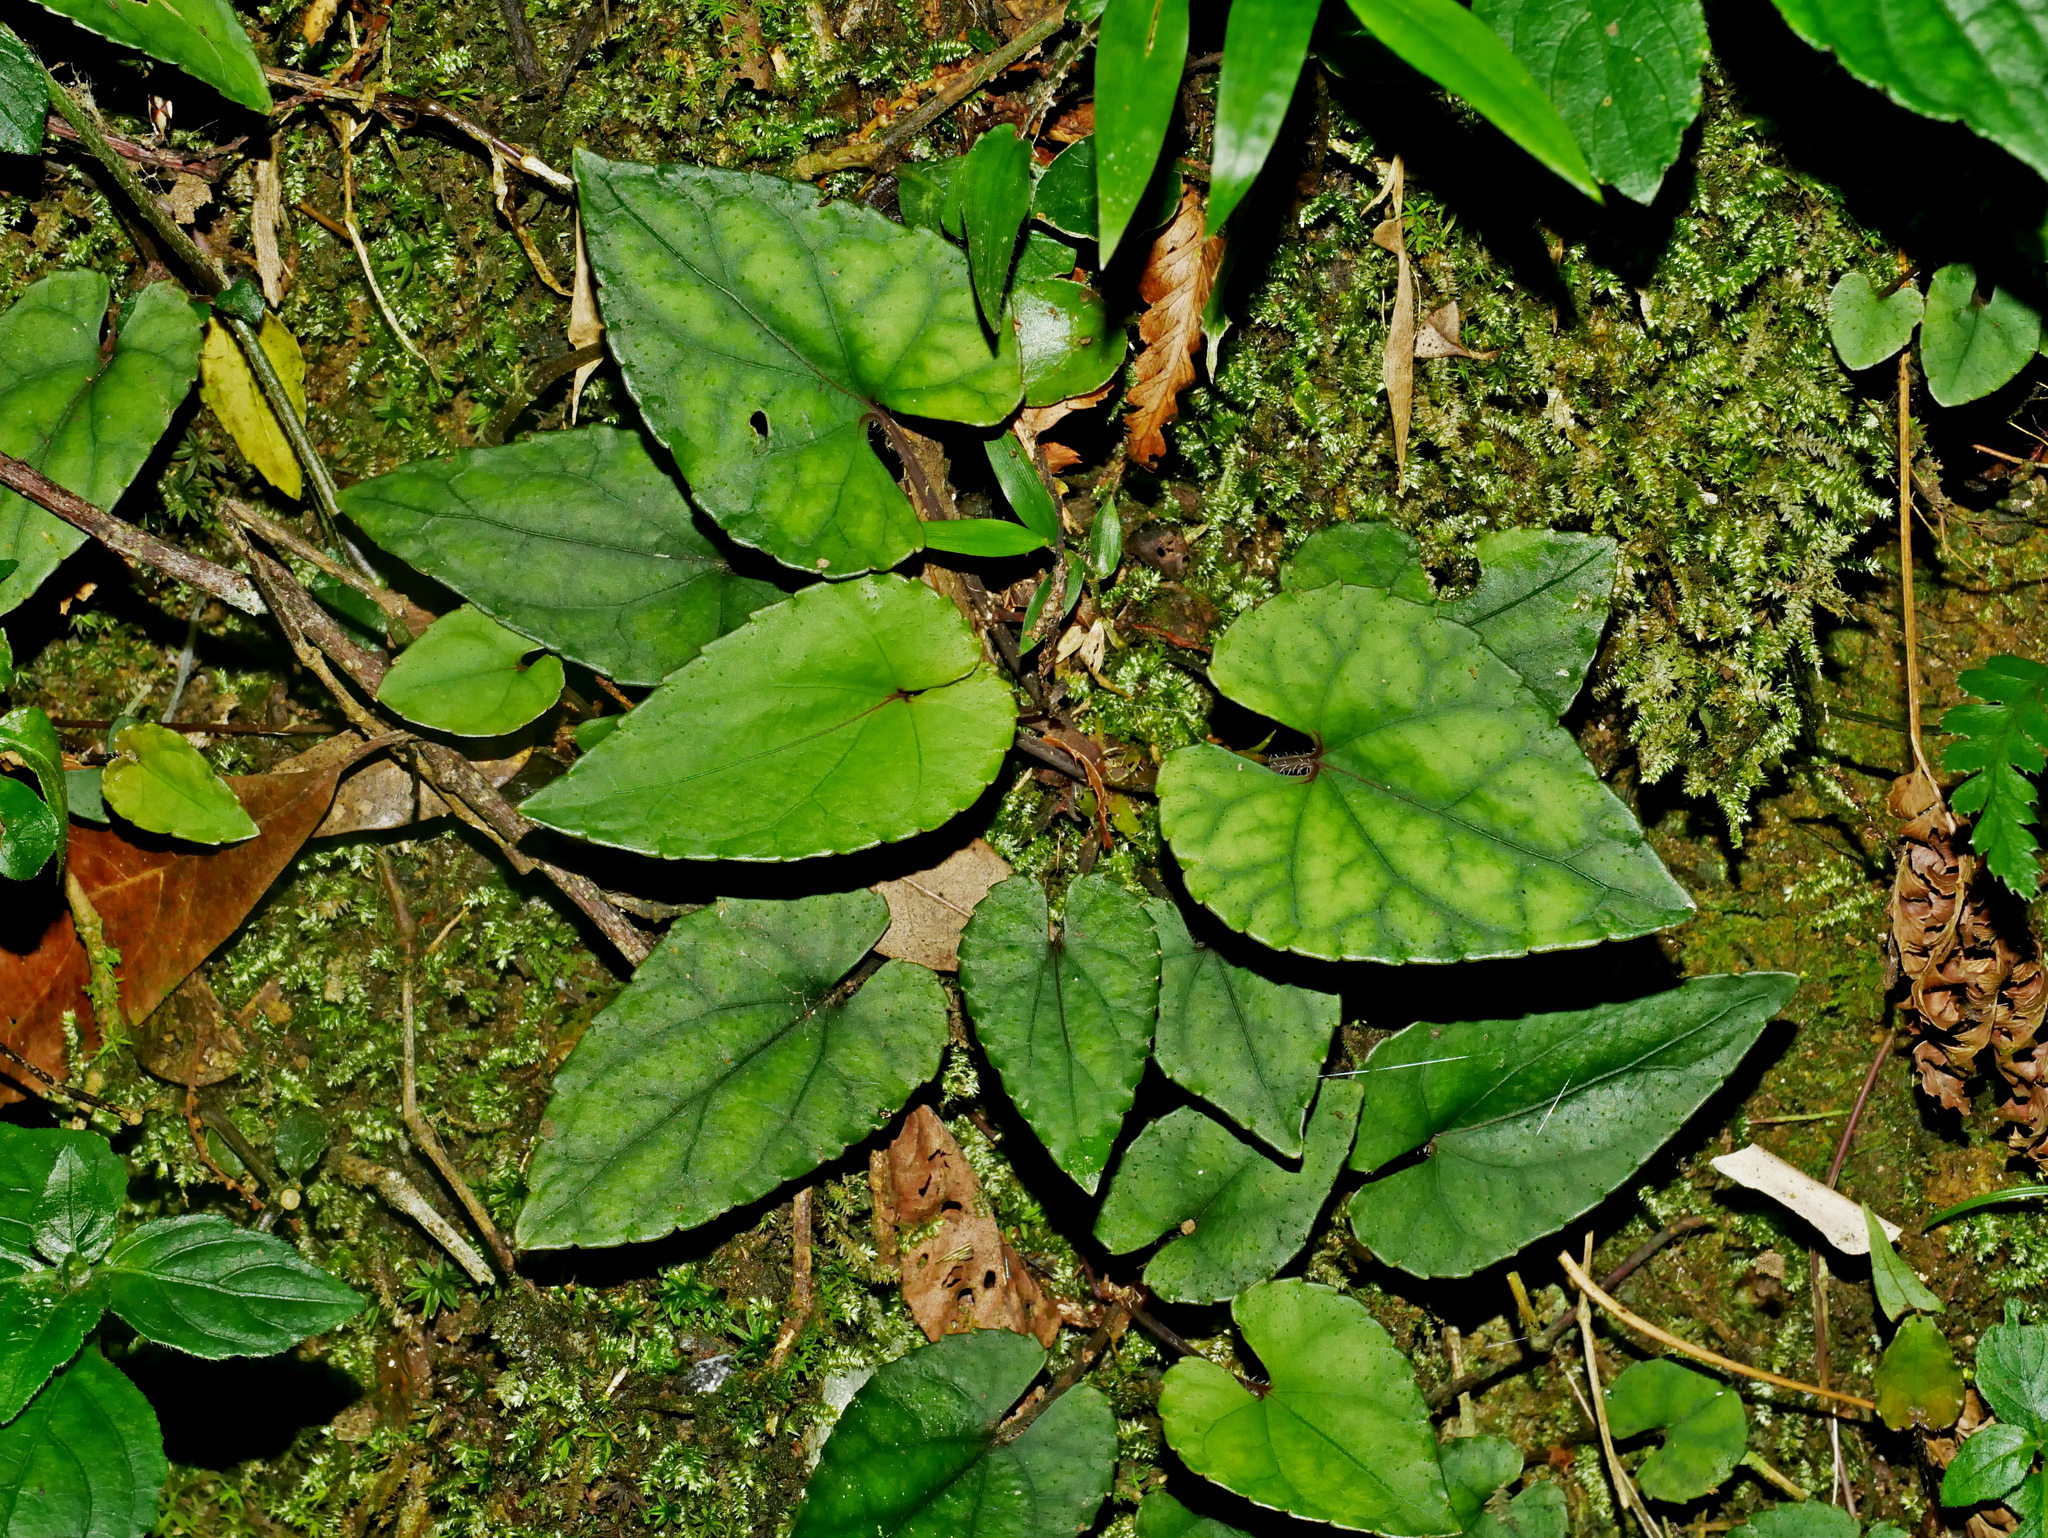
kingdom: Plantae
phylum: Tracheophyta
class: Magnoliopsida
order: Malpighiales
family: Violaceae
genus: Viola
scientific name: Viola formosana
